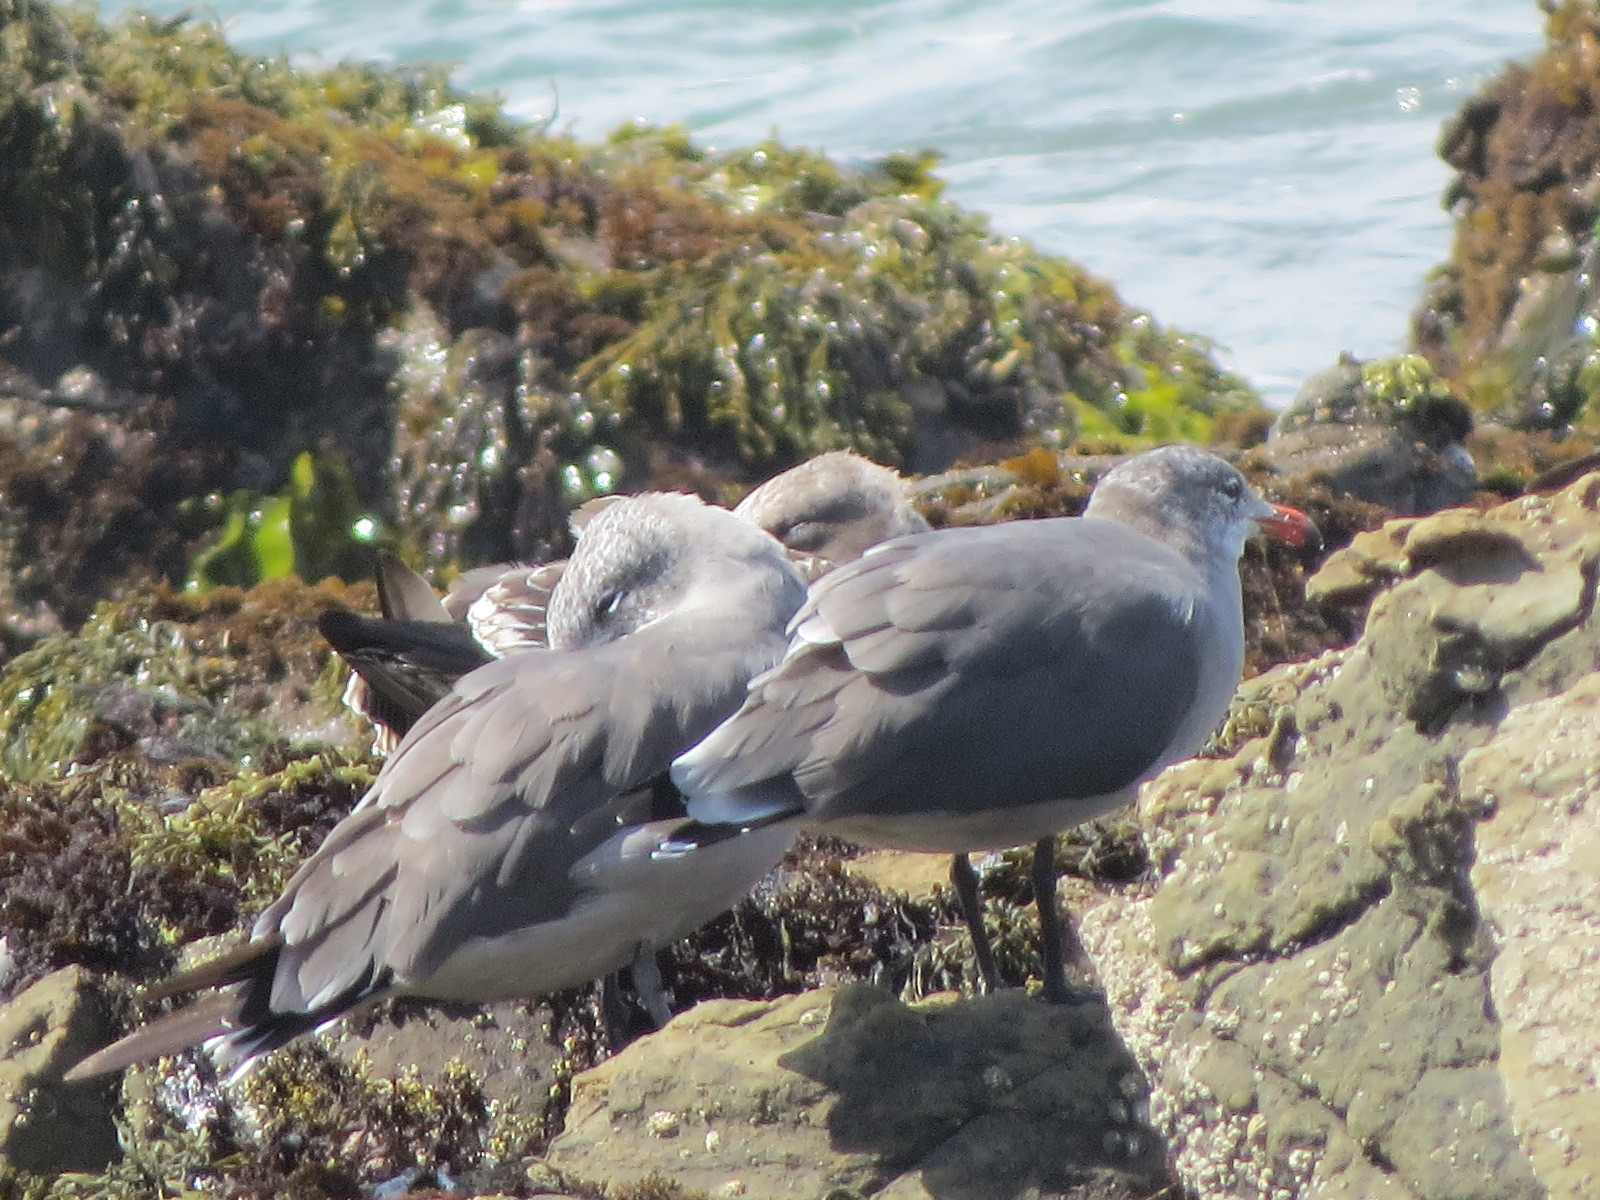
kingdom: Animalia
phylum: Chordata
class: Aves
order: Charadriiformes
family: Laridae
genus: Larus
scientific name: Larus heermanni
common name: Heermann's gull
